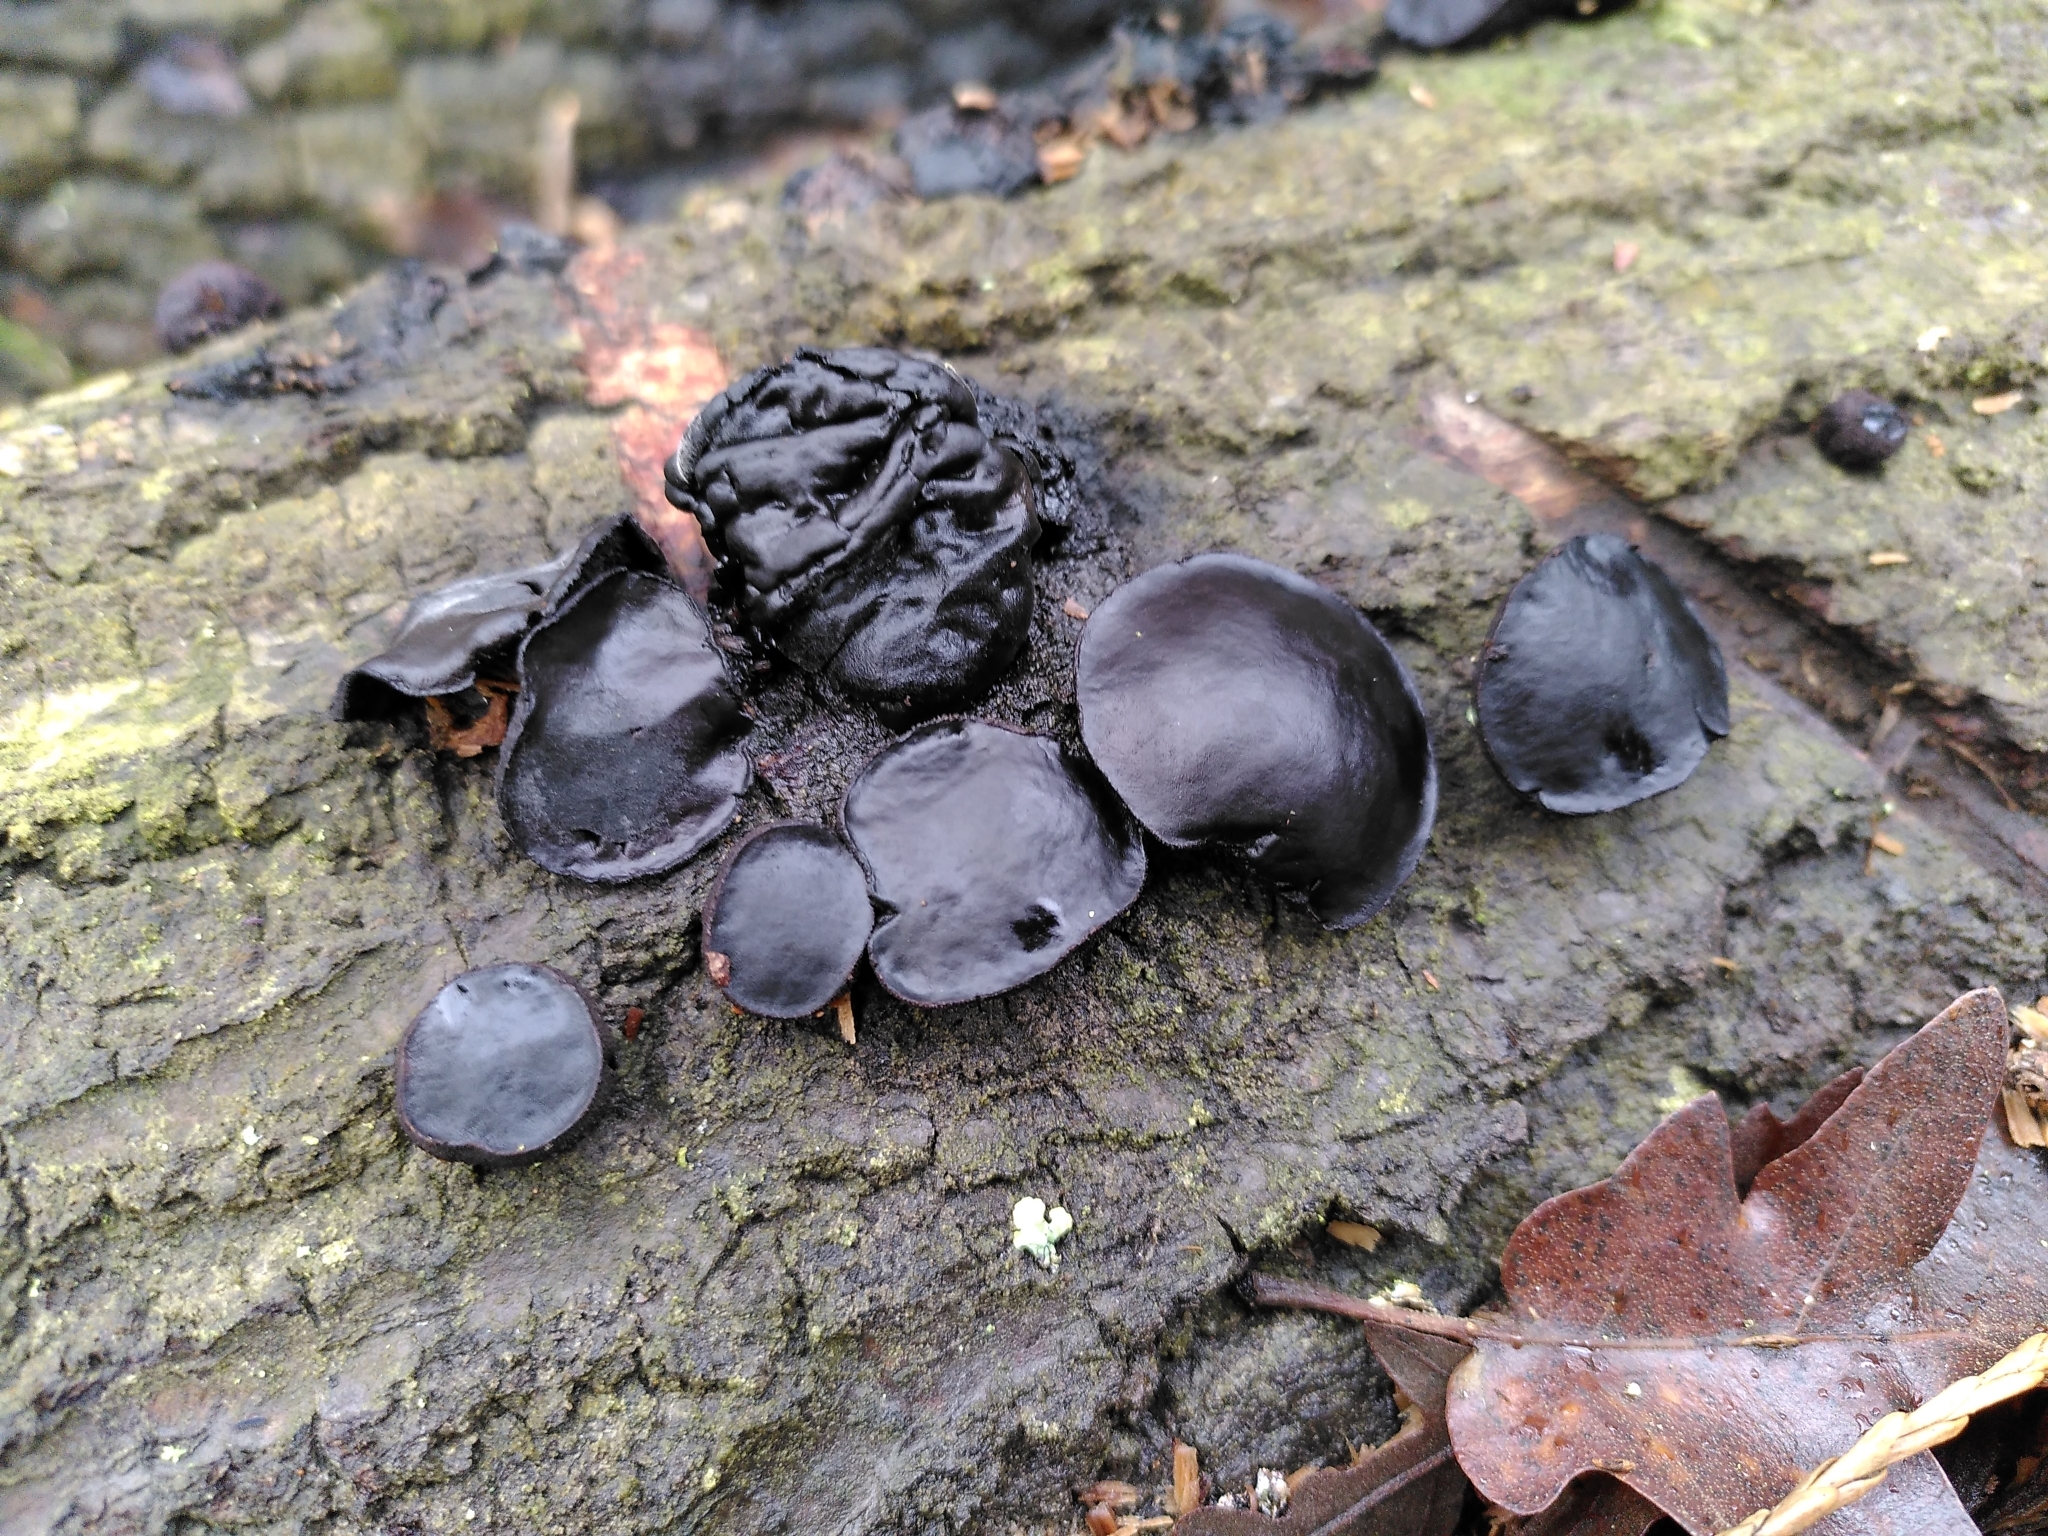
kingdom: Fungi
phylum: Ascomycota
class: Leotiomycetes
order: Phacidiales
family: Phacidiaceae
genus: Bulgaria
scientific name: Bulgaria inquinans
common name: Black bulgar
